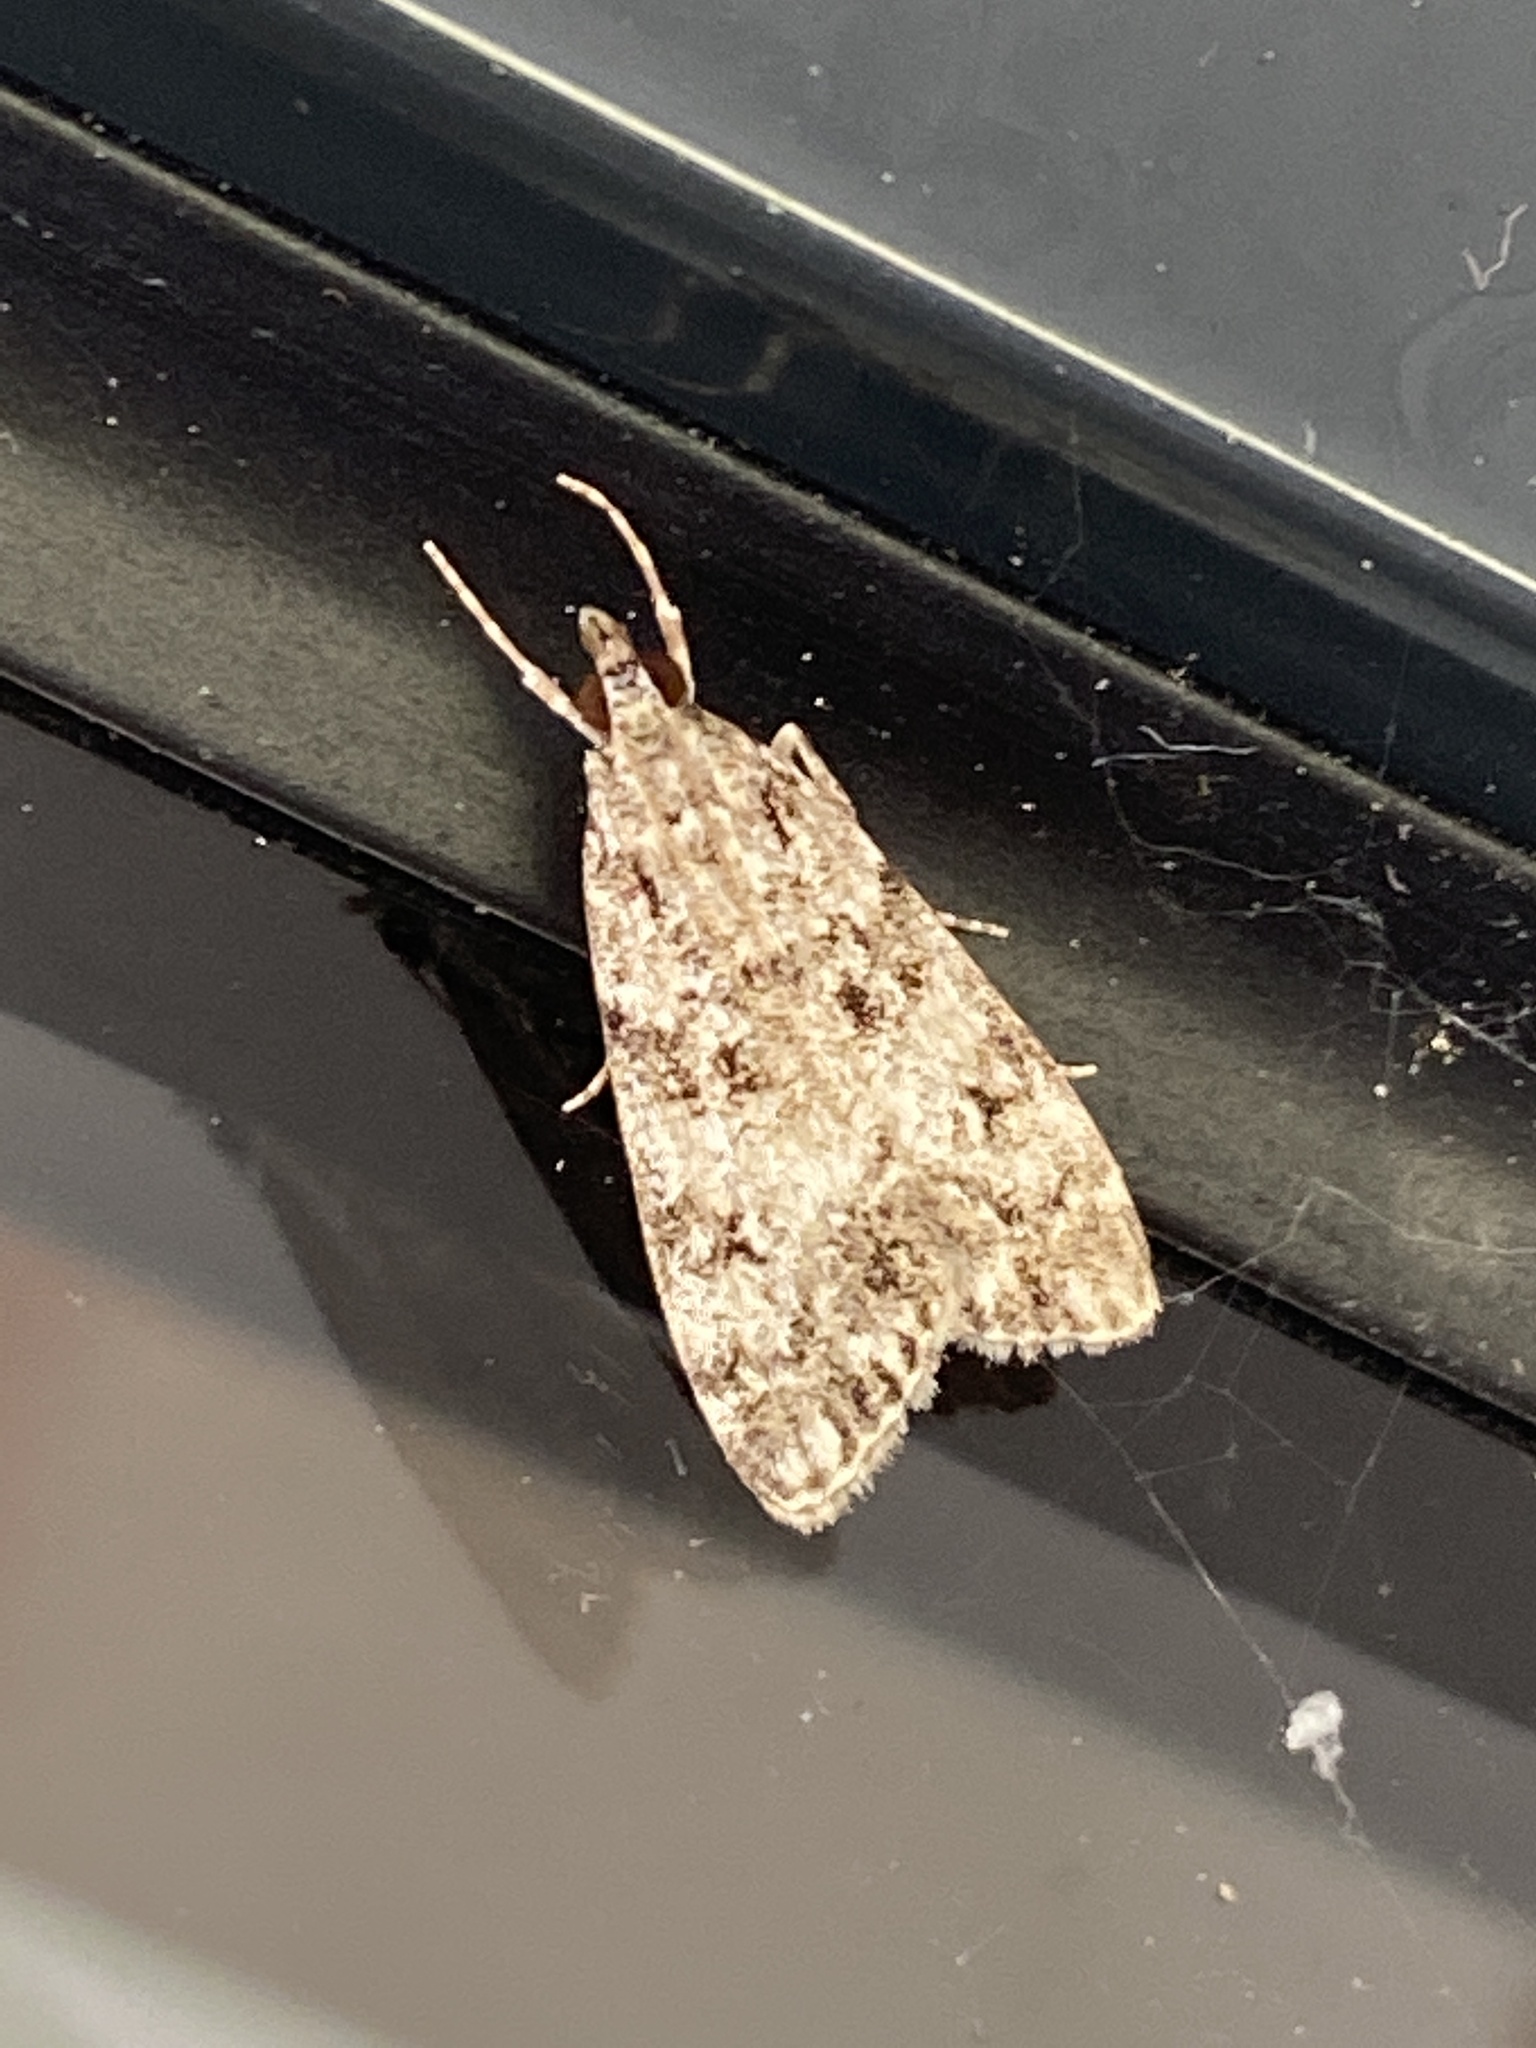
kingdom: Animalia
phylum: Arthropoda
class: Insecta
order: Lepidoptera
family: Crambidae
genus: Eudonia
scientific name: Eudonia lacustrata
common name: Little grey
